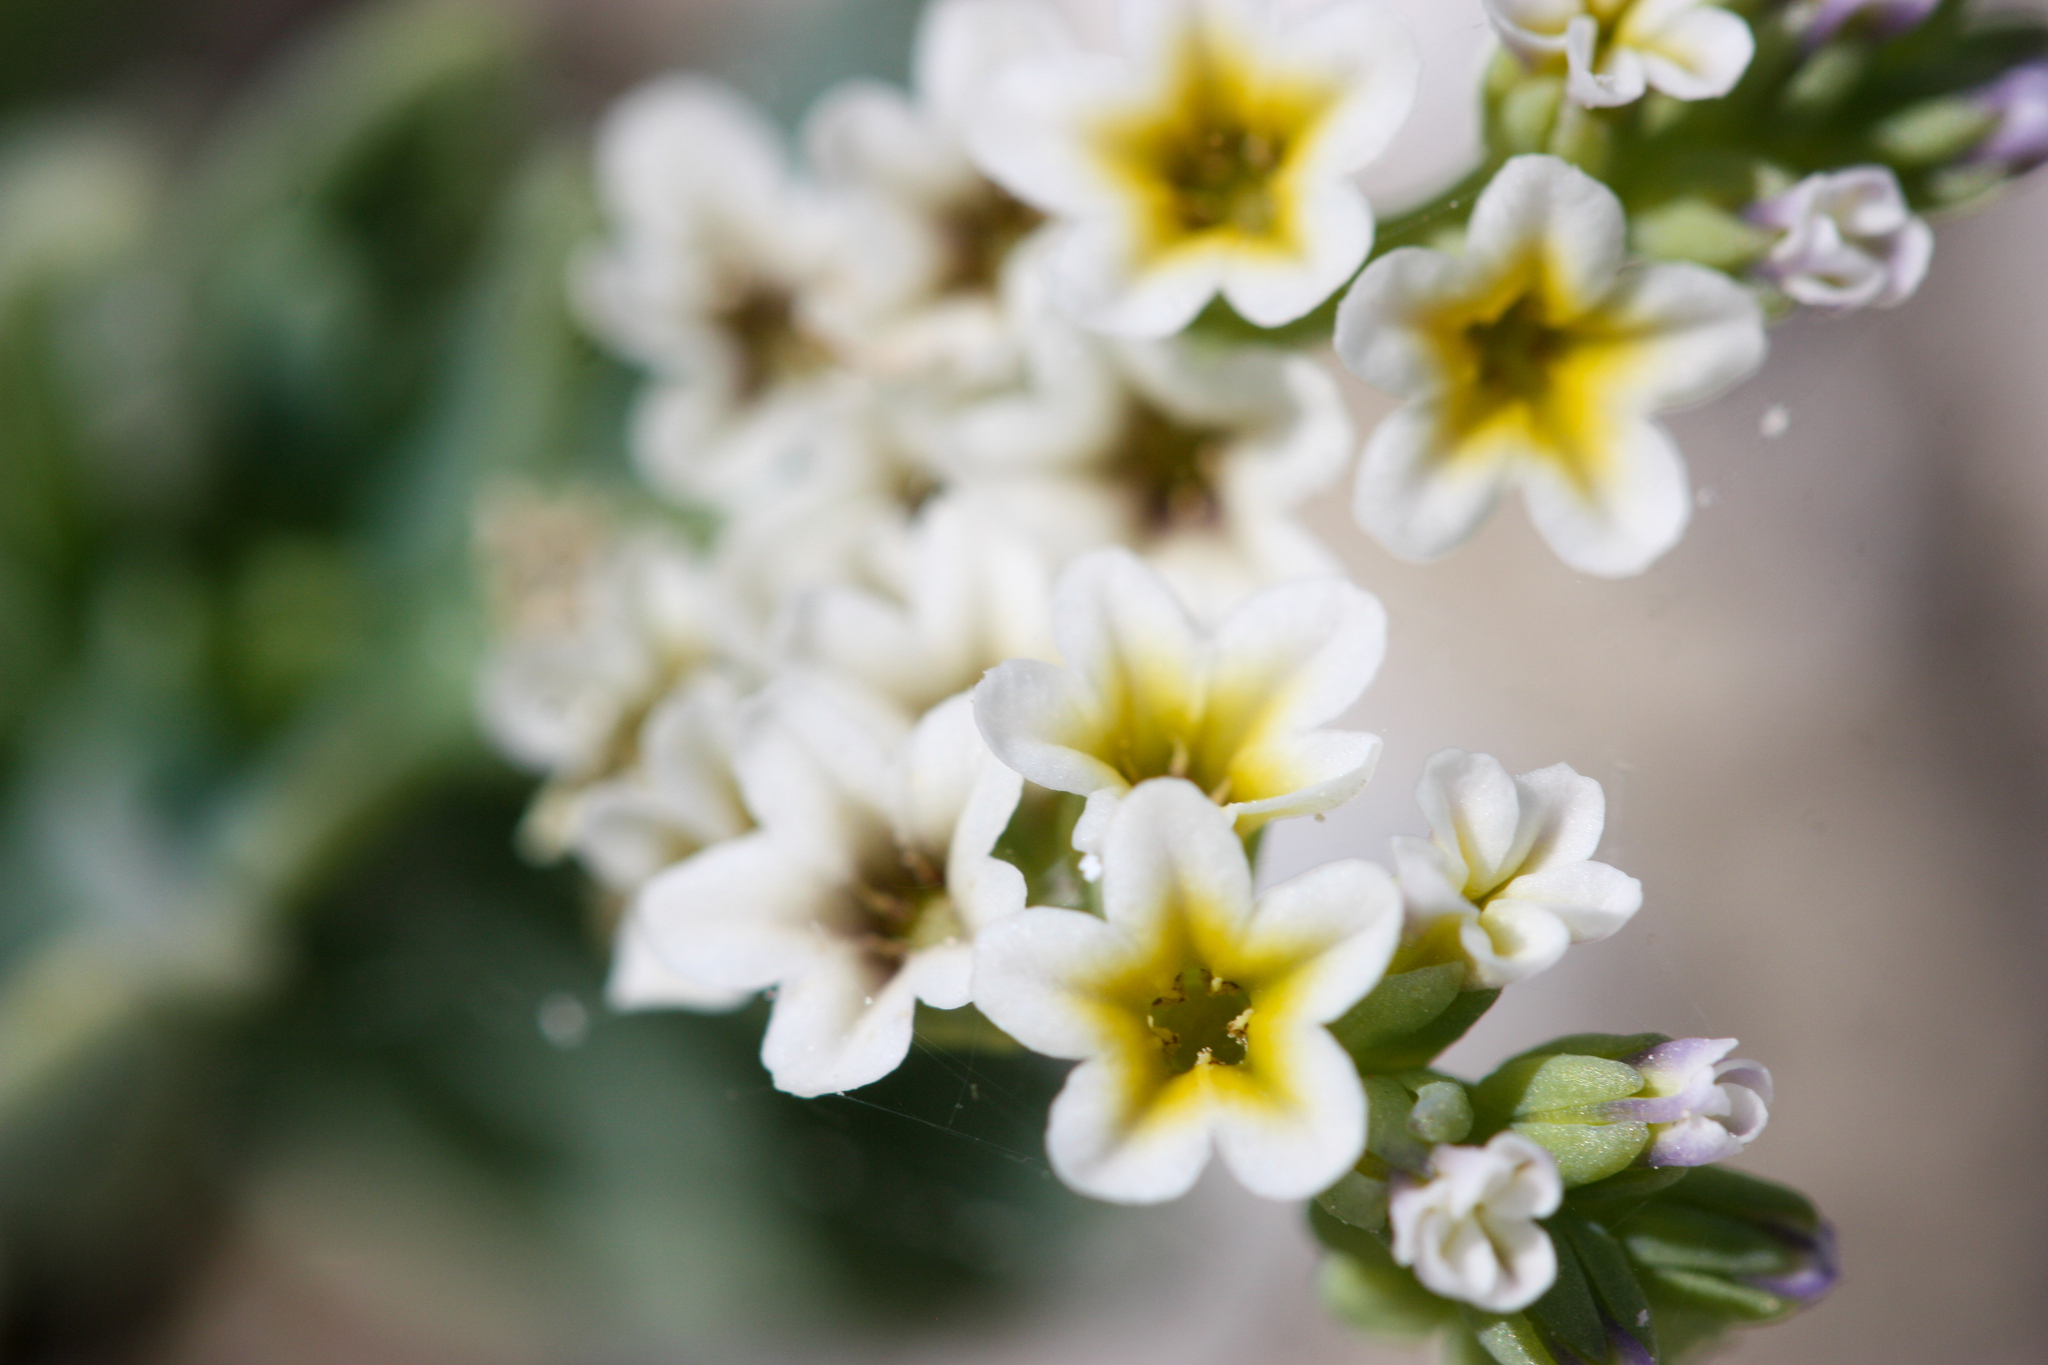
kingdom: Plantae
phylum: Tracheophyta
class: Magnoliopsida
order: Boraginales
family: Heliotropiaceae
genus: Heliotropium
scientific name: Heliotropium curassavicum
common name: Seaside heliotrope
